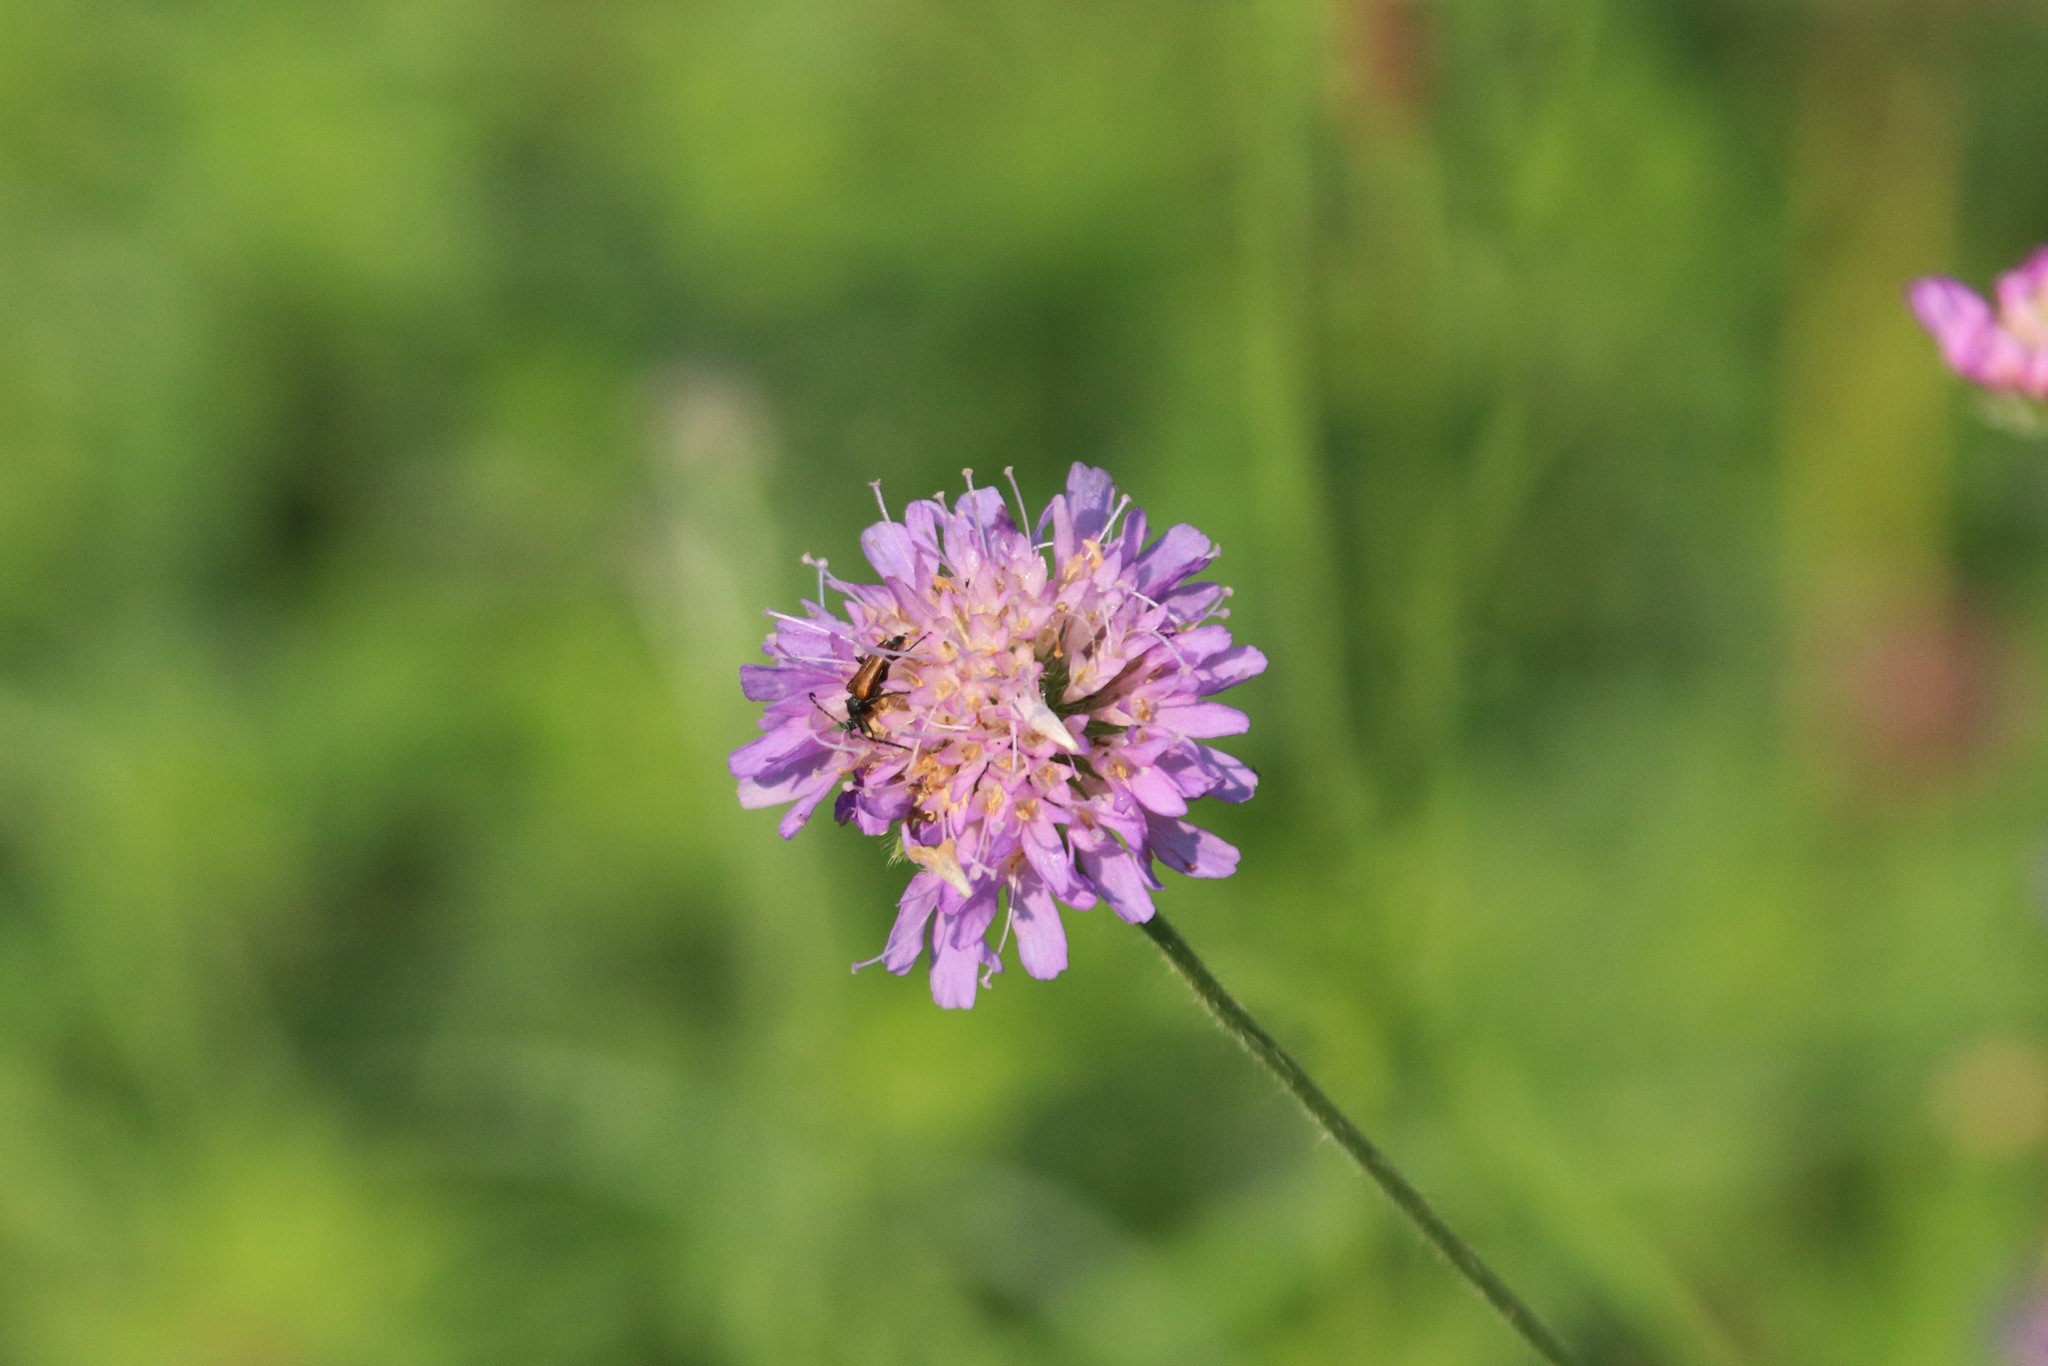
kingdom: Plantae
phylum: Tracheophyta
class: Magnoliopsida
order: Dipsacales
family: Caprifoliaceae
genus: Knautia
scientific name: Knautia arvensis
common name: Field scabiosa
